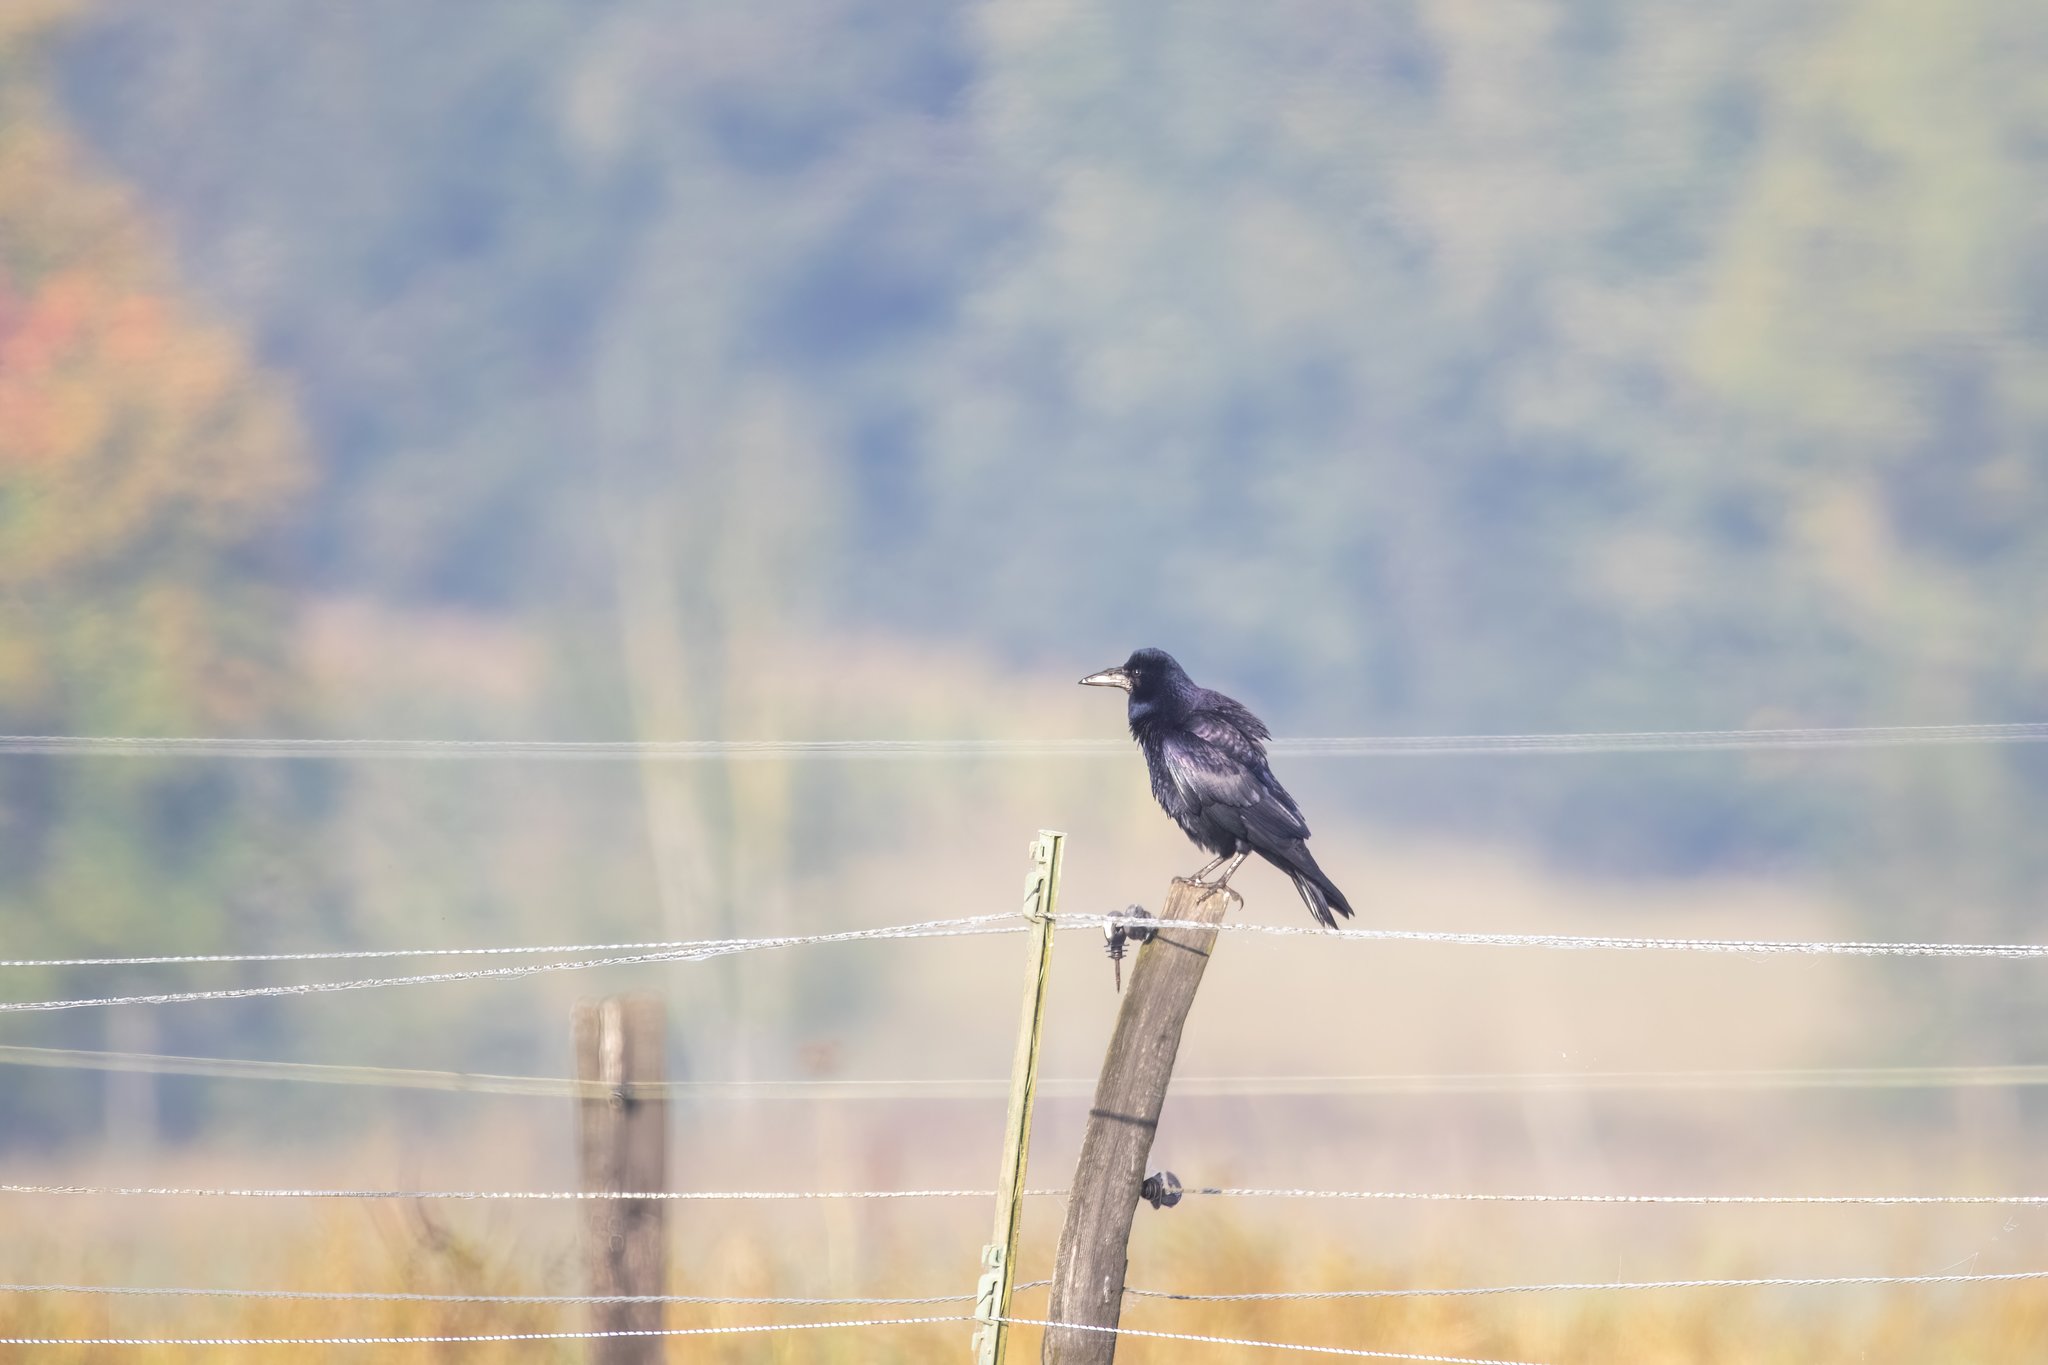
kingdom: Animalia
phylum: Chordata
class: Aves
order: Passeriformes
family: Corvidae
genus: Corvus
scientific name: Corvus frugilegus
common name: Rook
